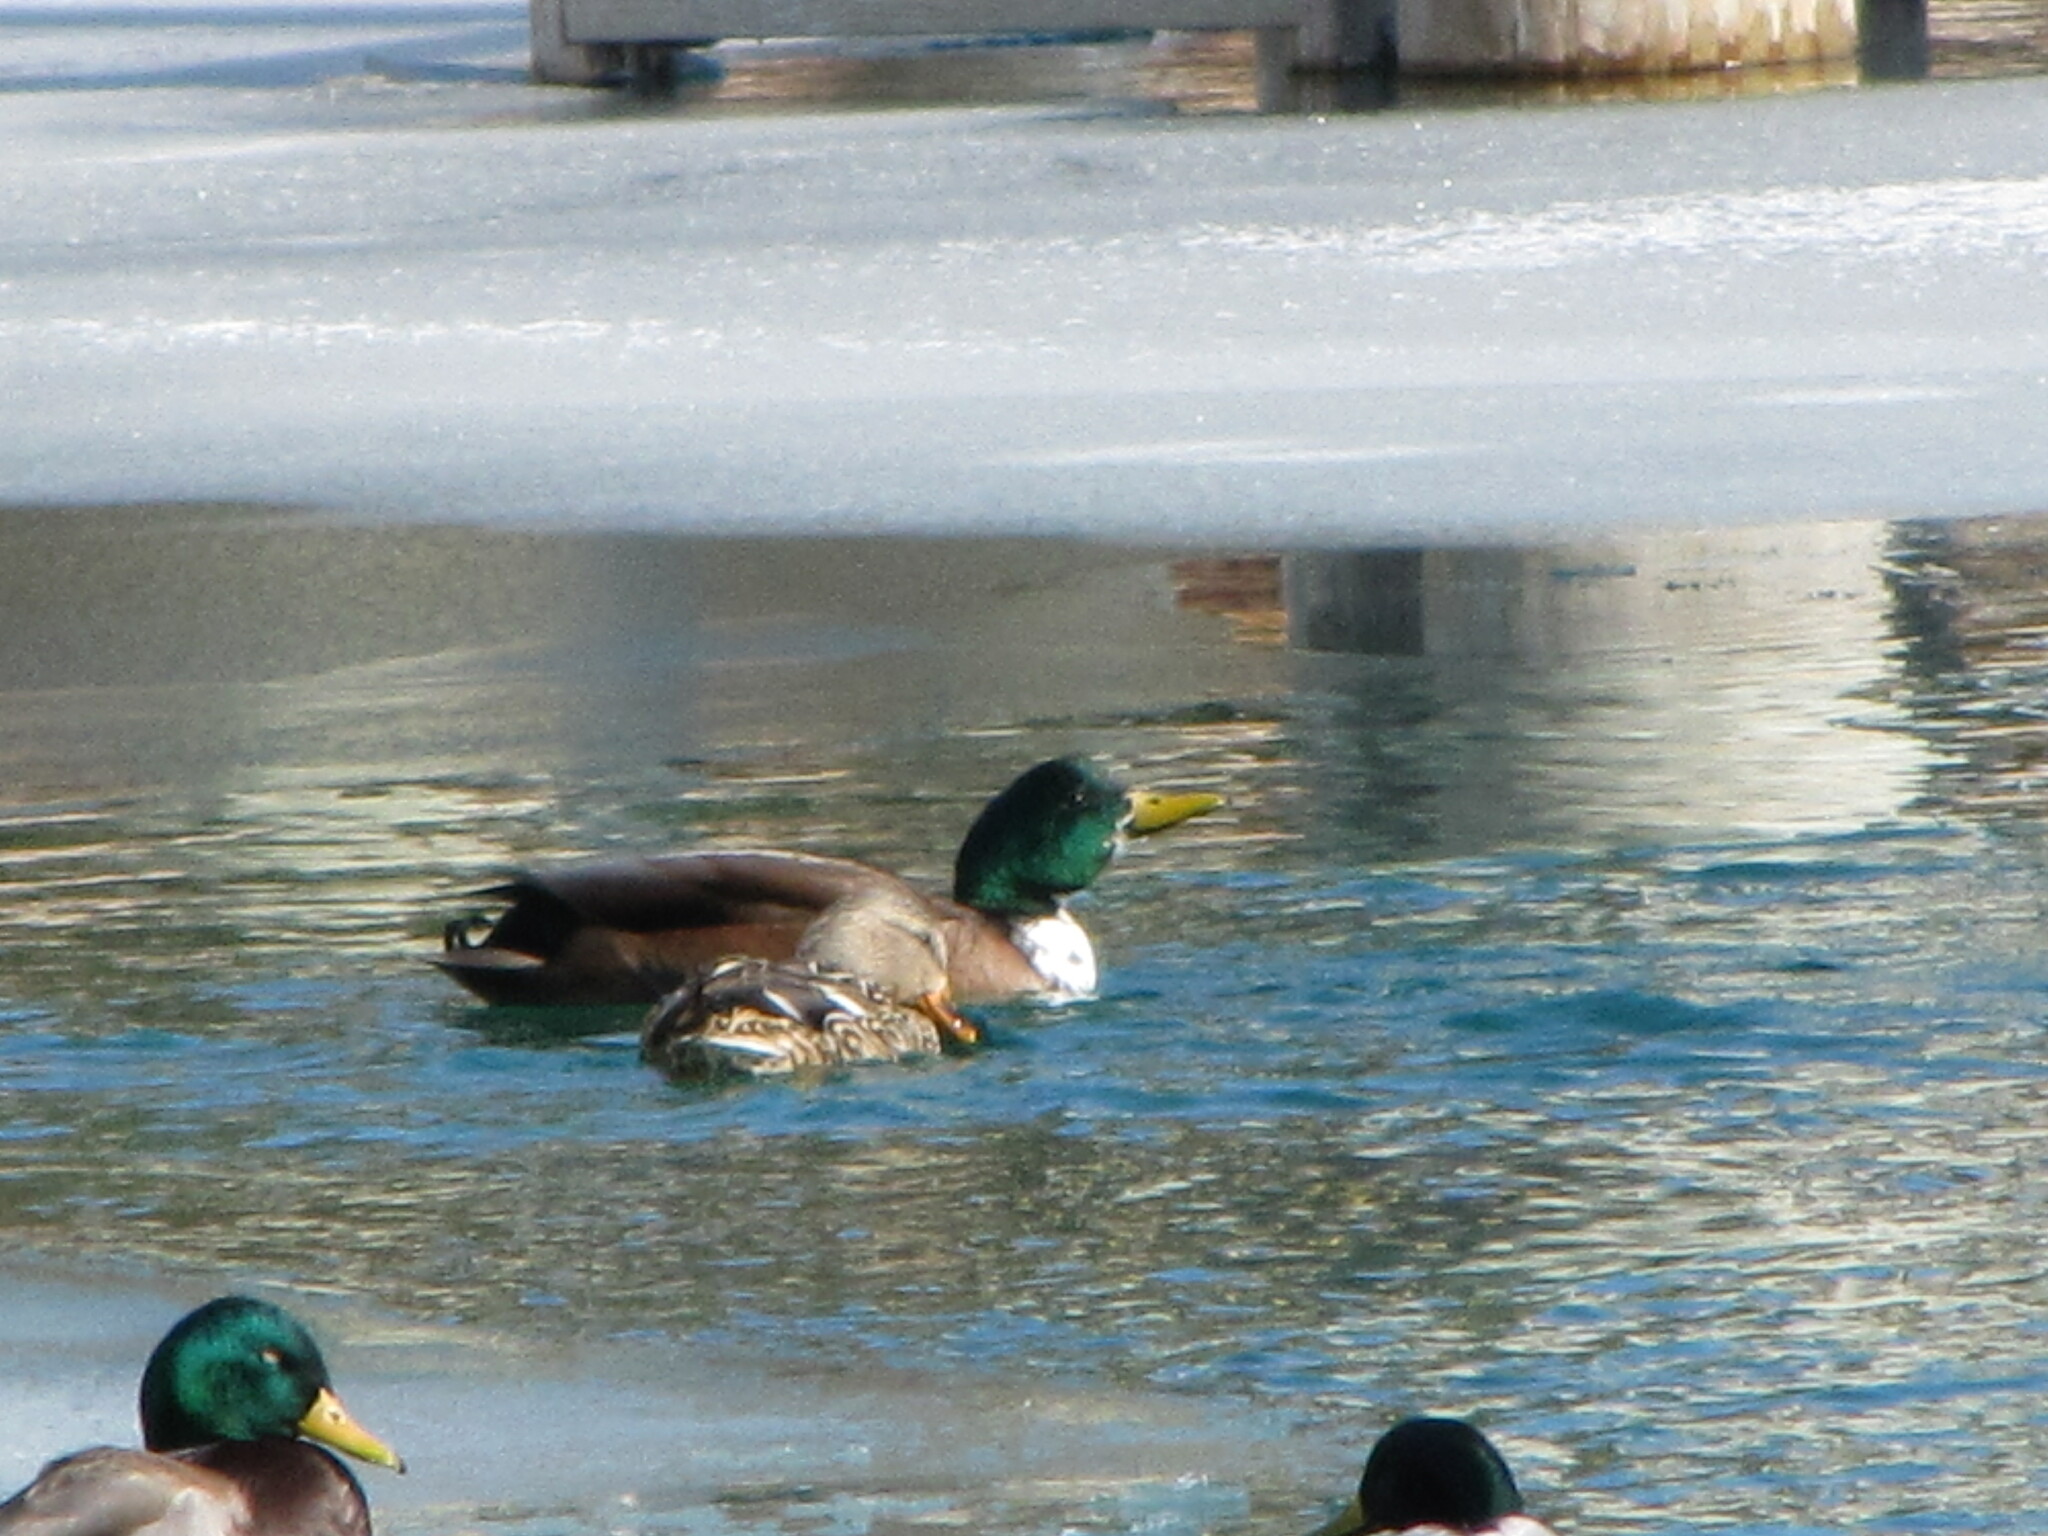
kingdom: Animalia
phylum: Chordata
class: Aves
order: Anseriformes
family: Anatidae
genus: Anas
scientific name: Anas platyrhynchos
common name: Mallard
